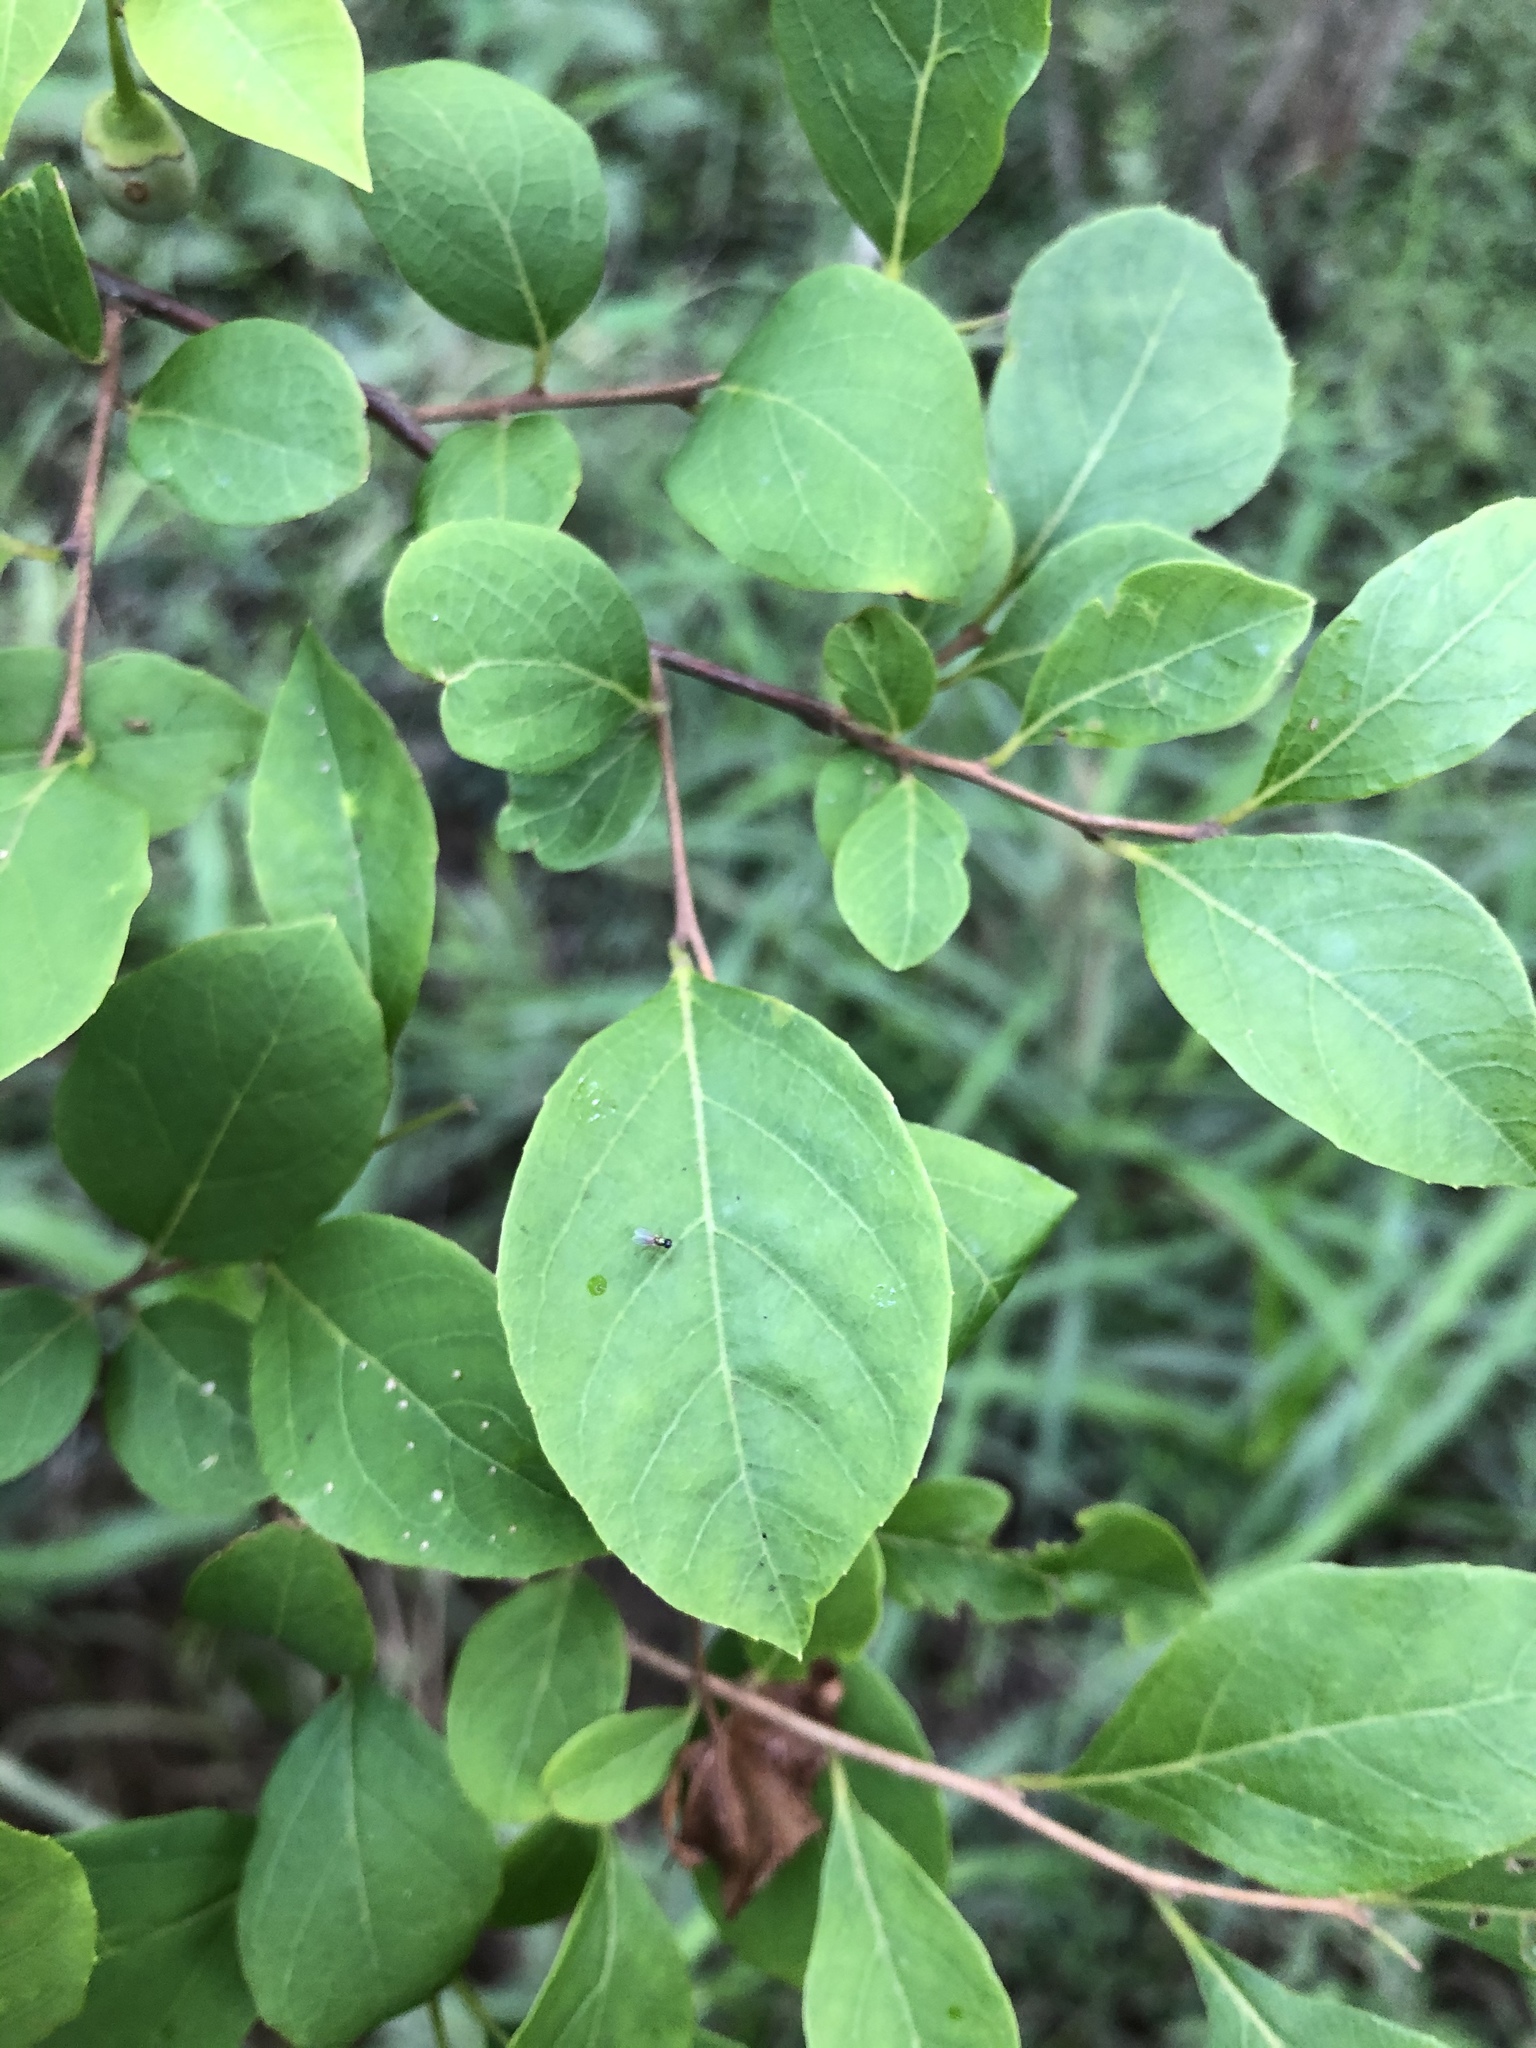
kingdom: Plantae
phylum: Tracheophyta
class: Magnoliopsida
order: Ericales
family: Styracaceae
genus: Styrax
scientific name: Styrax americanus
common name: American snowbell
